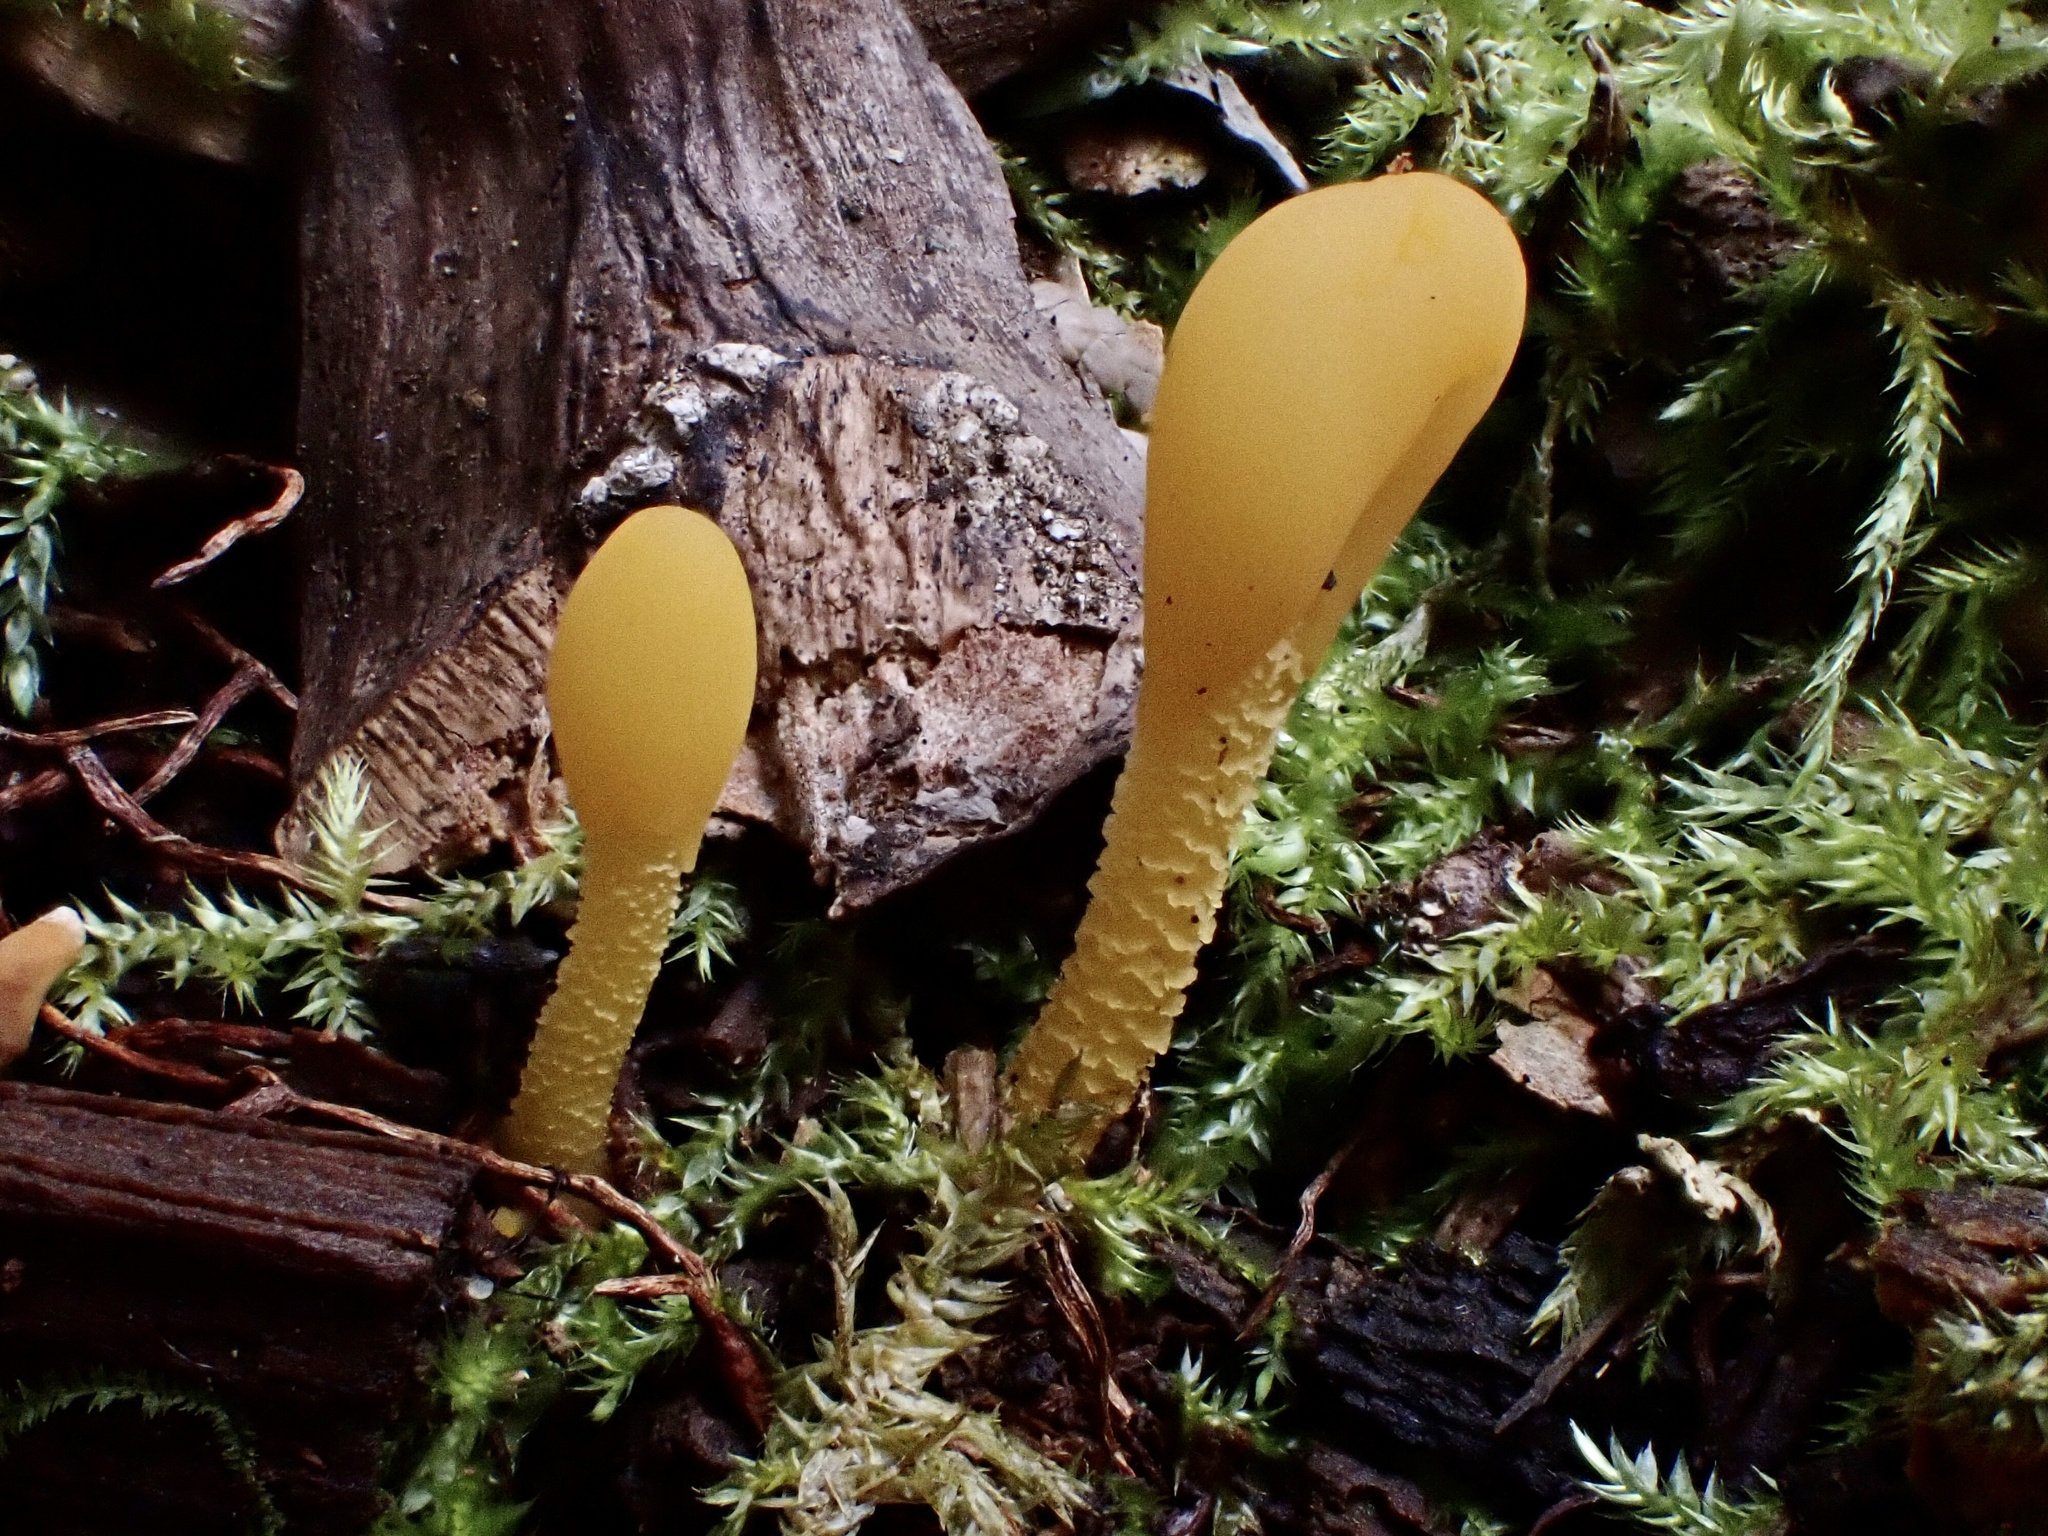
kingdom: Fungi
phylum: Ascomycota
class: Leotiomycetes
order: Leotiales
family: Leotiaceae
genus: Microglossum
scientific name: Microglossum rufum
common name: Orange earthtongue
